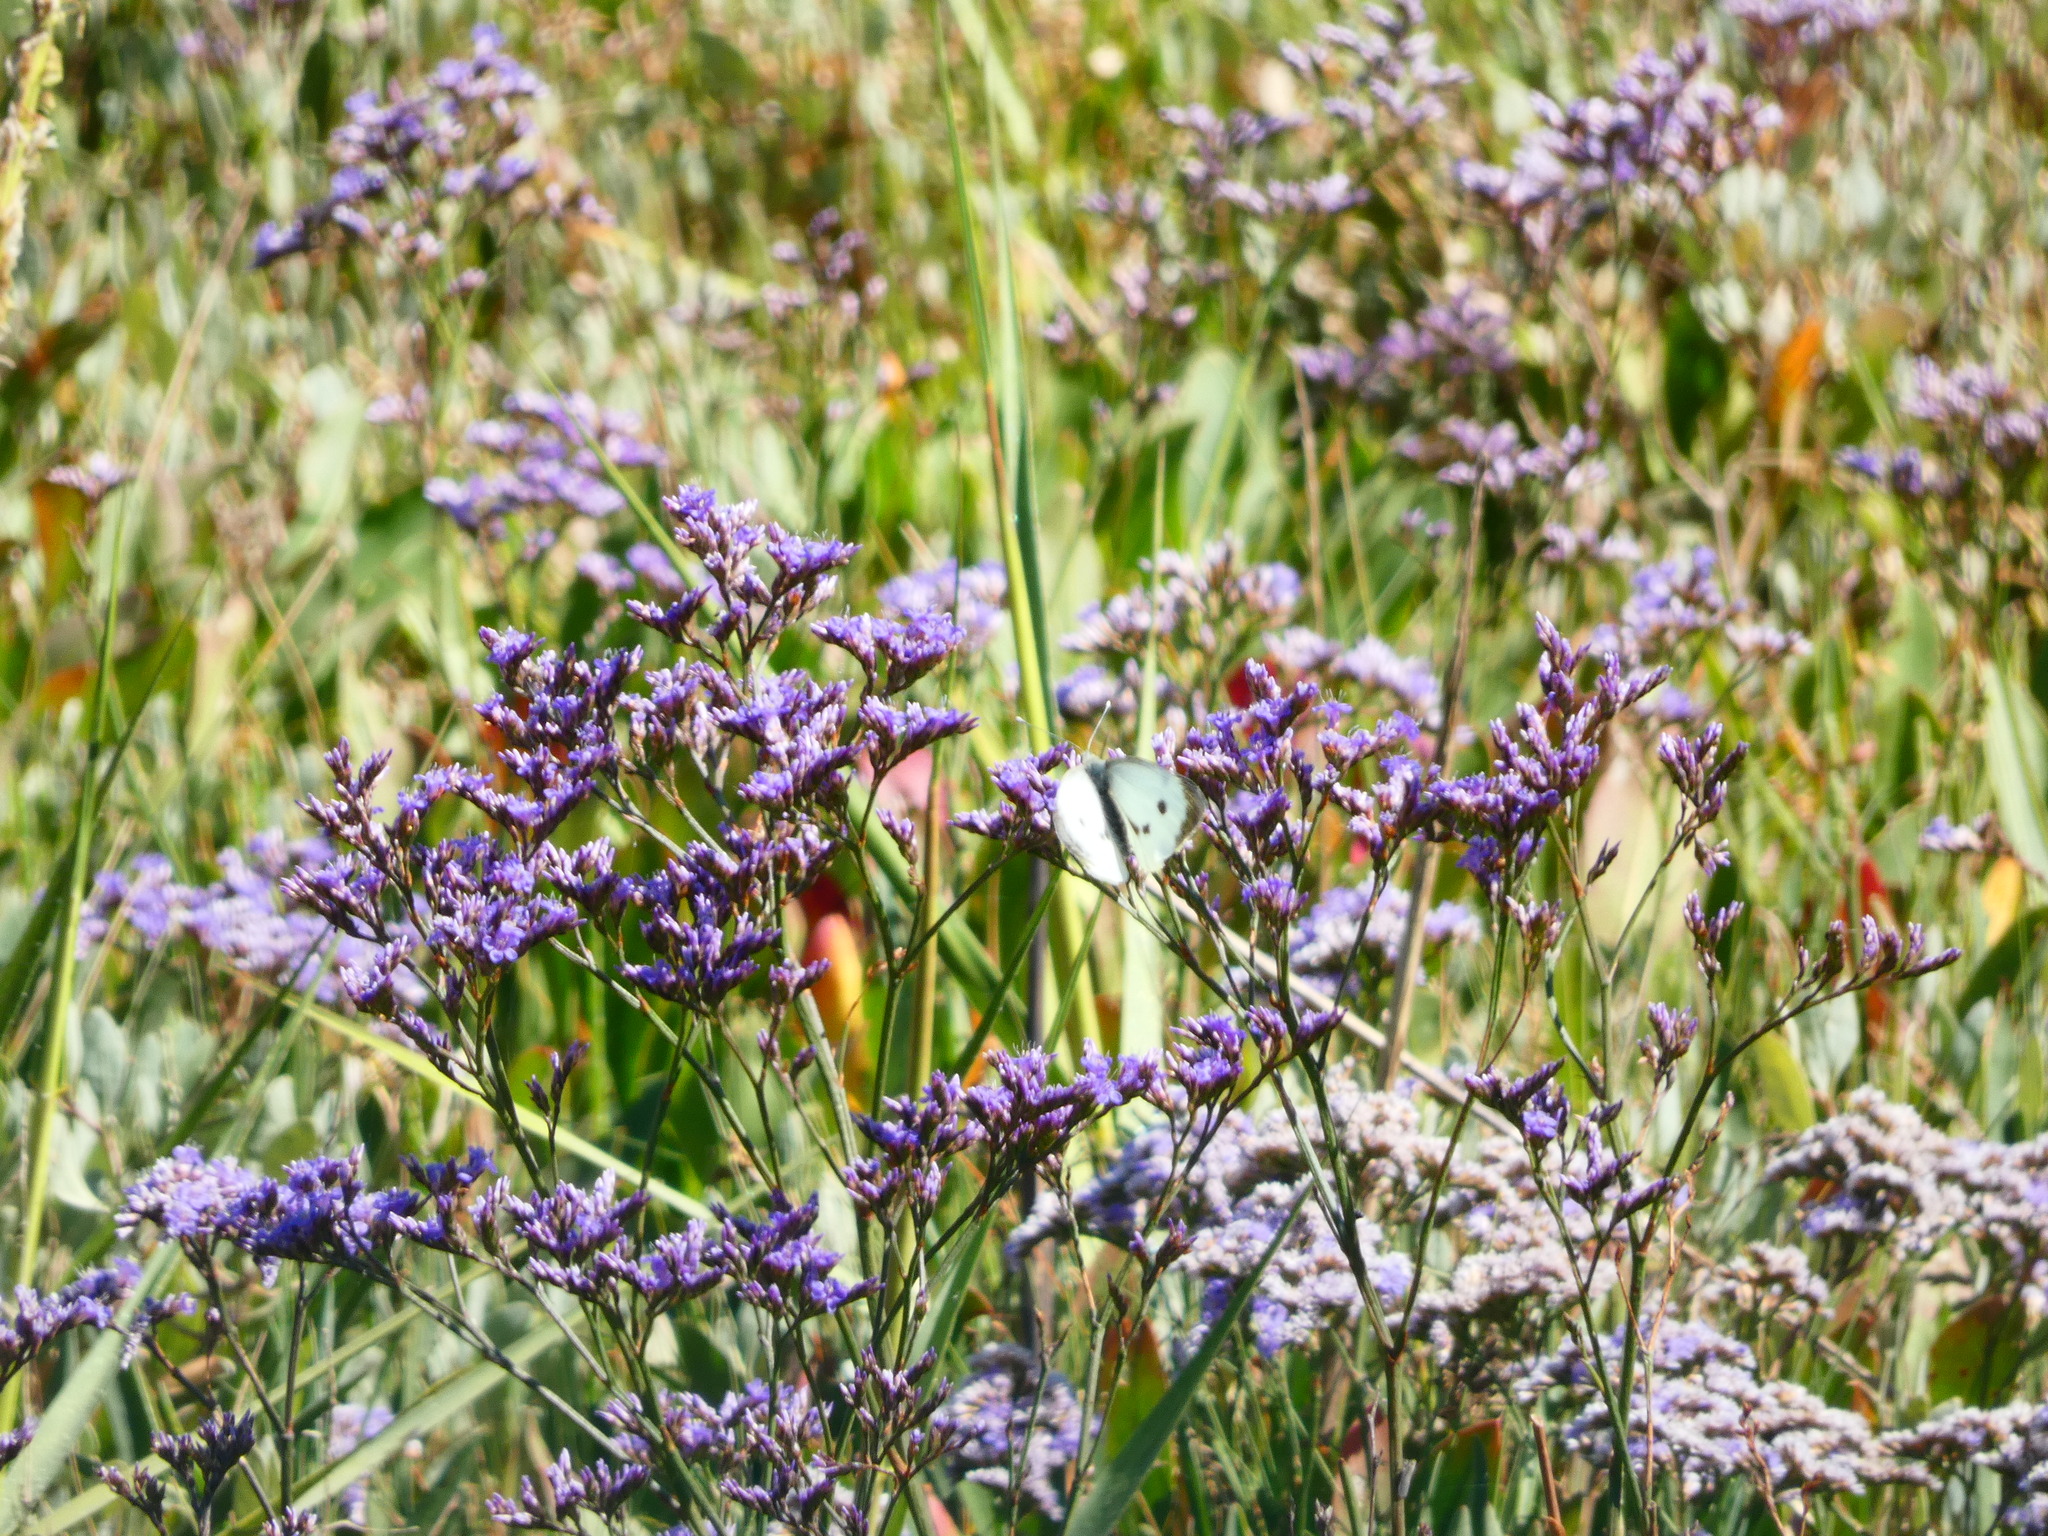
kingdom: Animalia
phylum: Arthropoda
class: Insecta
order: Lepidoptera
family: Pieridae
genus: Pieris
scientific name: Pieris brassicae
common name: Large white
